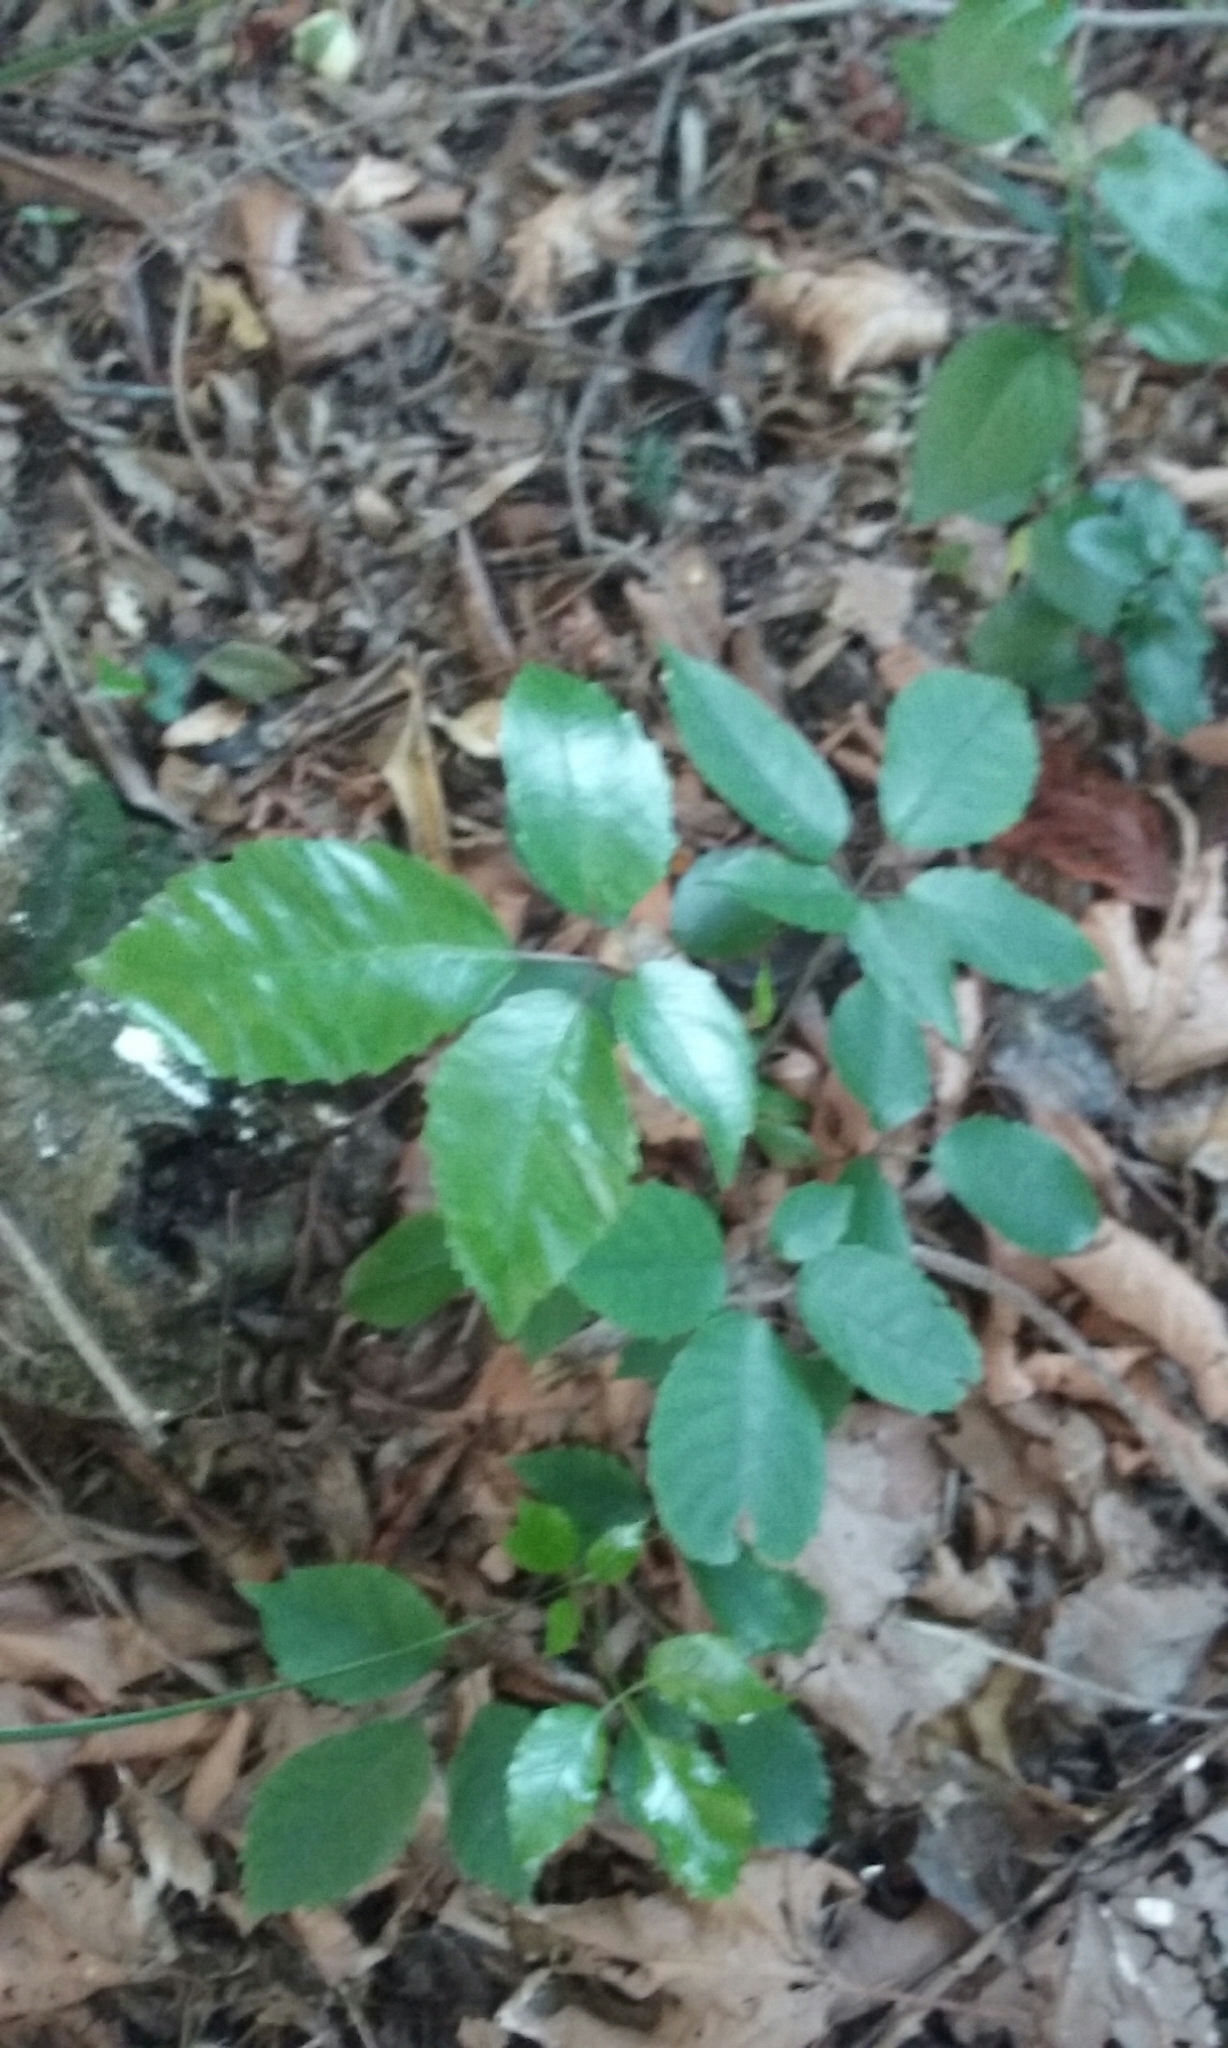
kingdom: Plantae
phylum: Tracheophyta
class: Magnoliopsida
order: Apiales
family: Araliaceae
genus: Neopanax
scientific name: Neopanax arboreus
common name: Five-fingers
